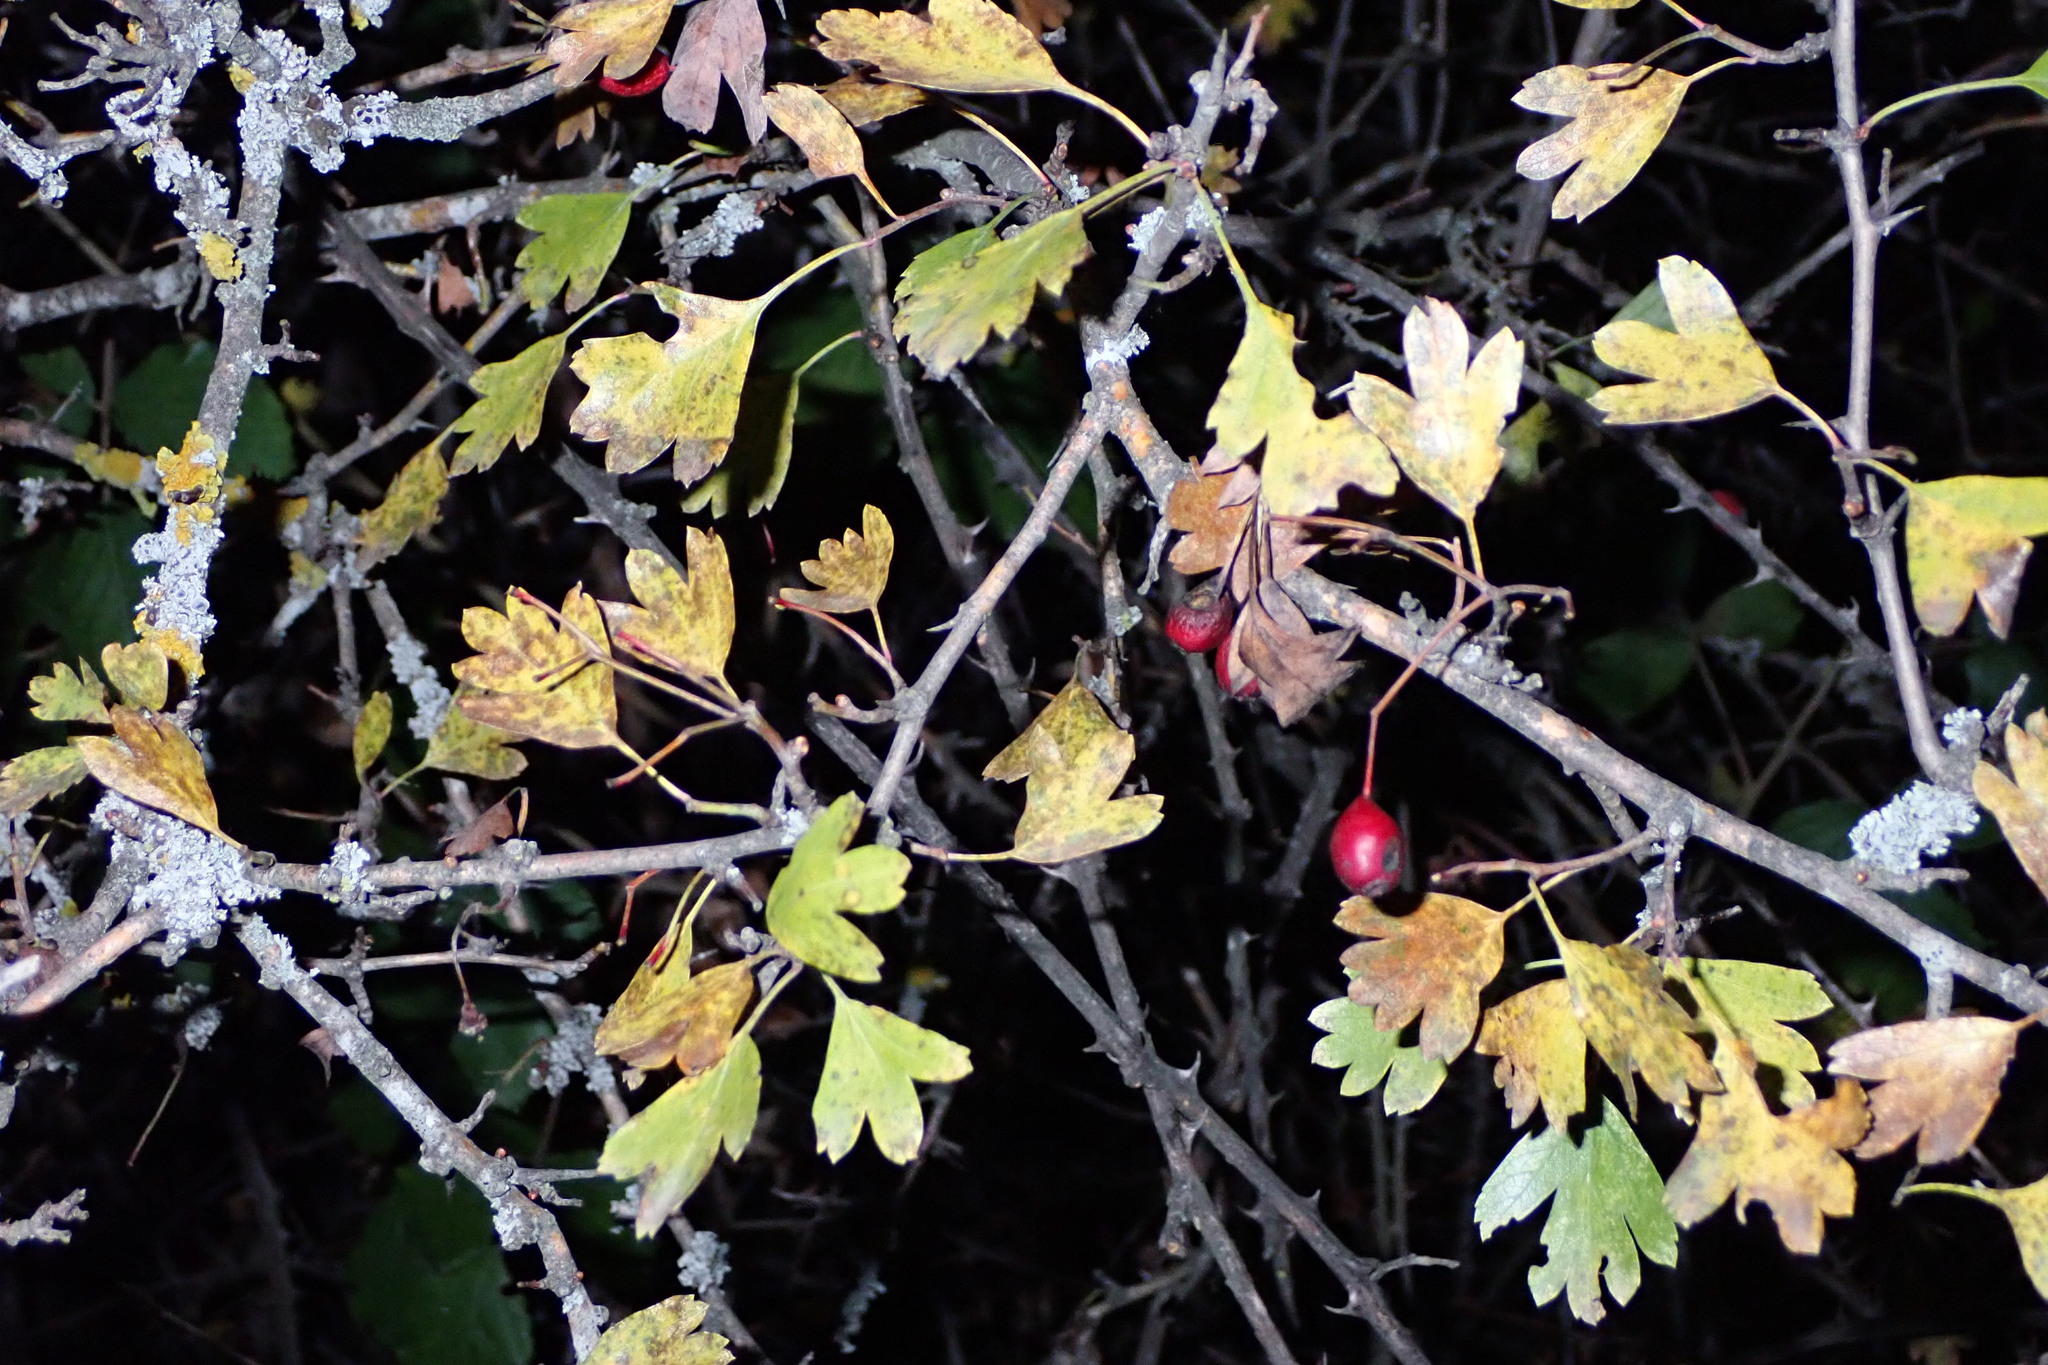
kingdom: Plantae
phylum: Tracheophyta
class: Magnoliopsida
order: Rosales
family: Rosaceae
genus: Crataegus
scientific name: Crataegus monogyna
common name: Hawthorn
